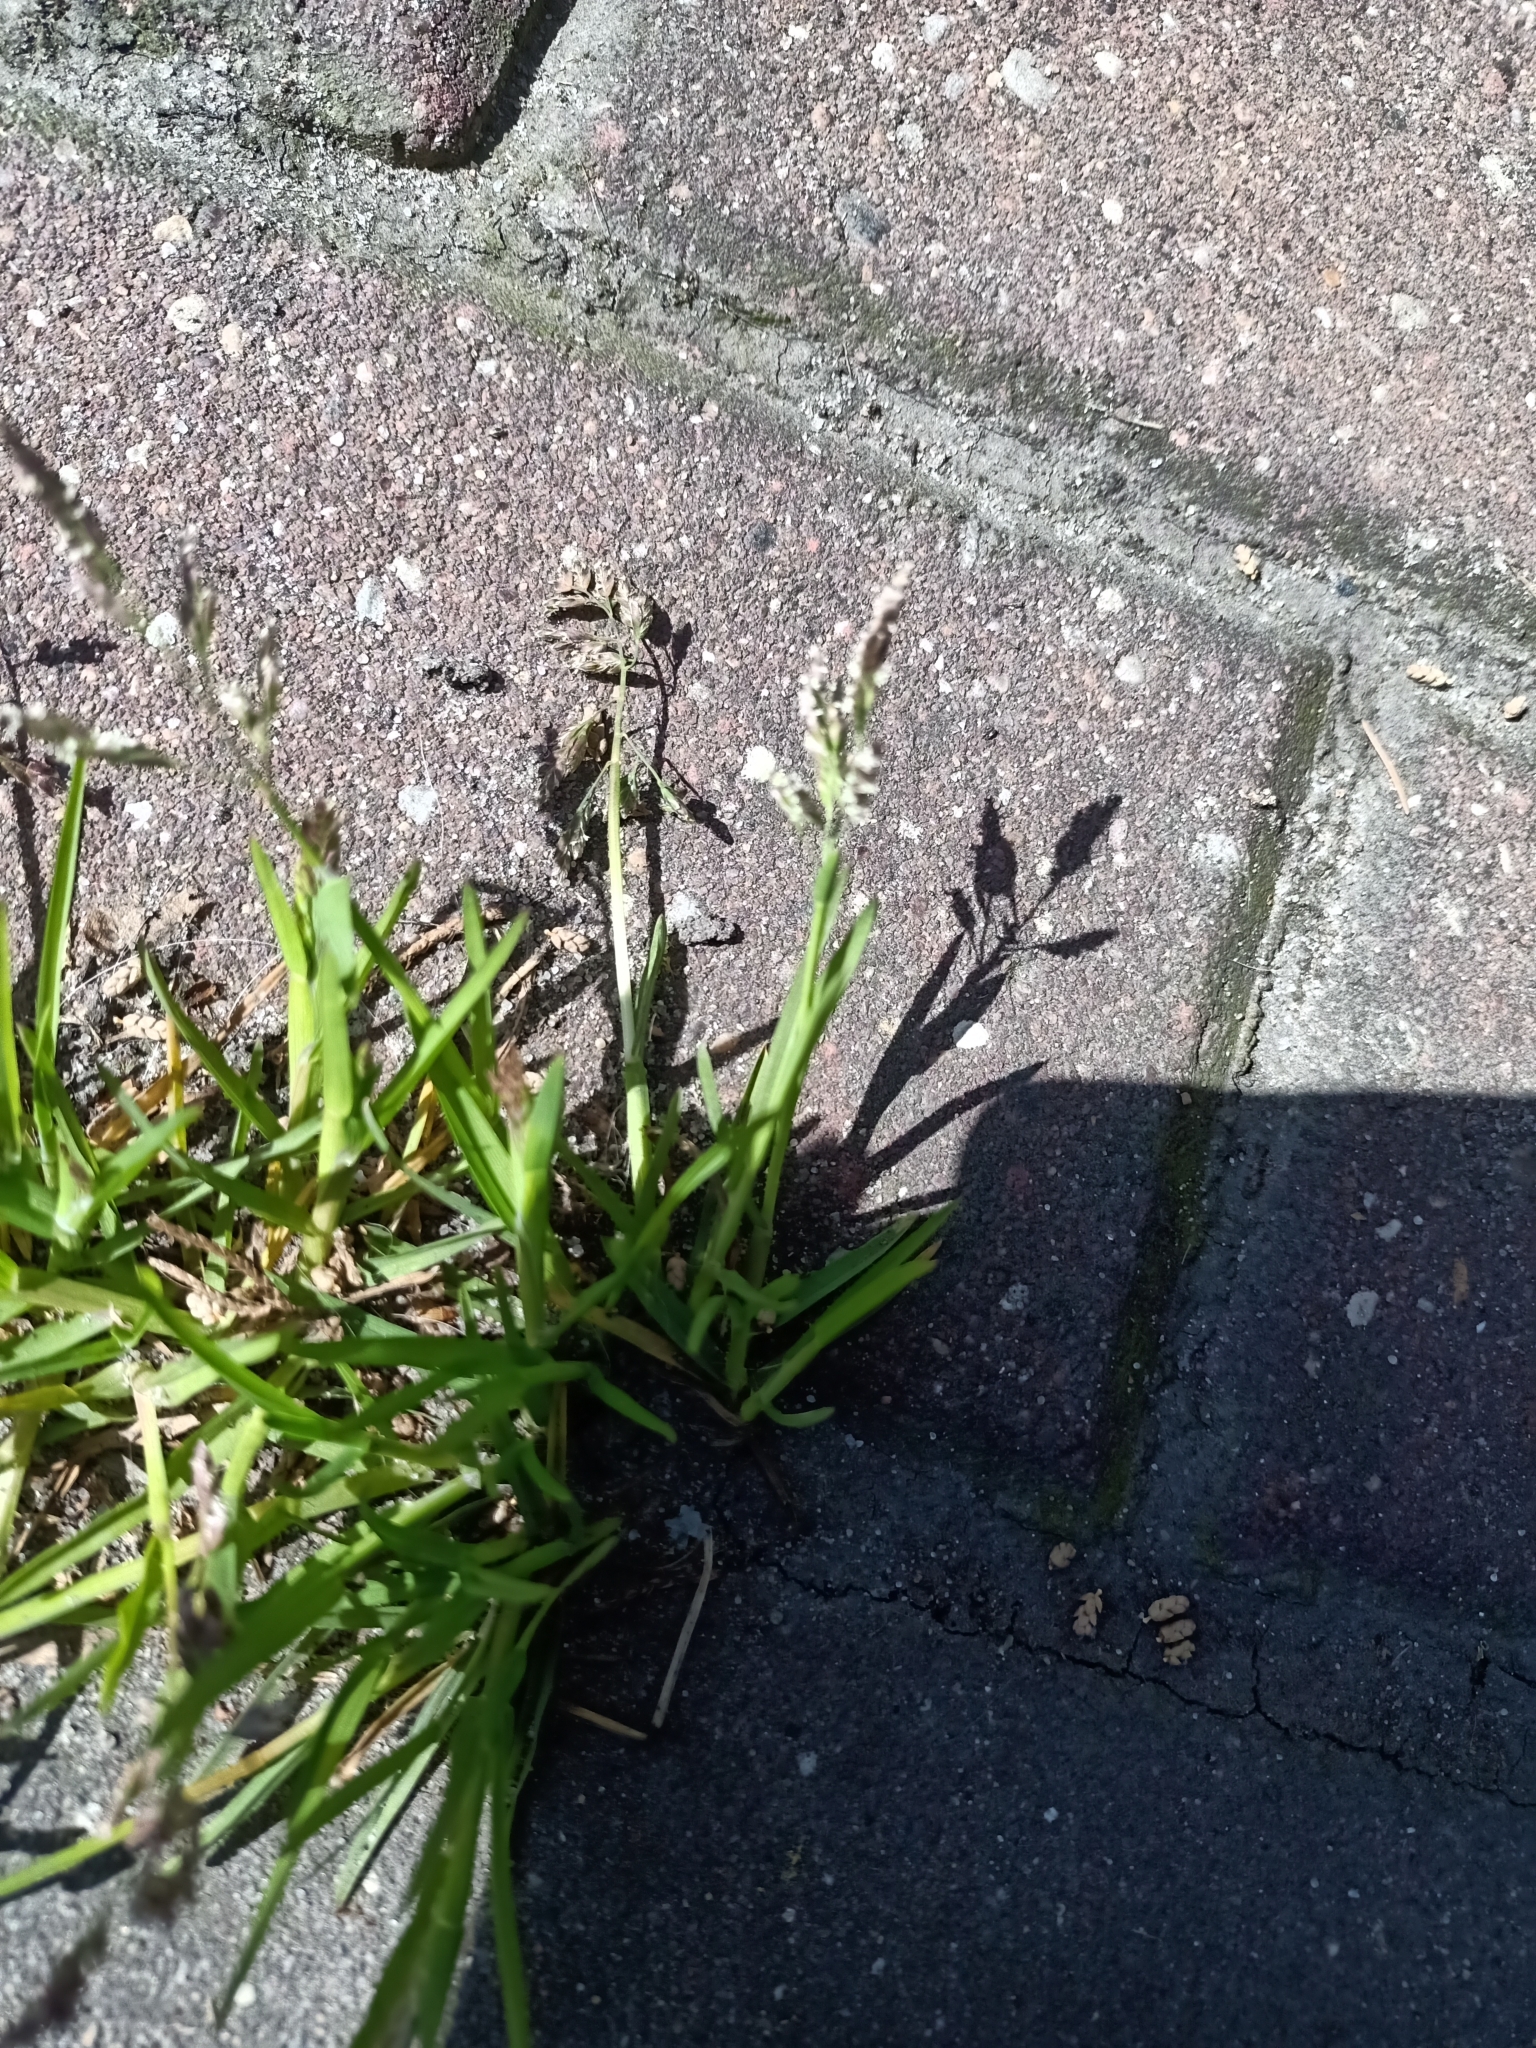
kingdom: Plantae
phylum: Tracheophyta
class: Liliopsida
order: Poales
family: Poaceae
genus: Poa
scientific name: Poa annua
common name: Annual bluegrass
